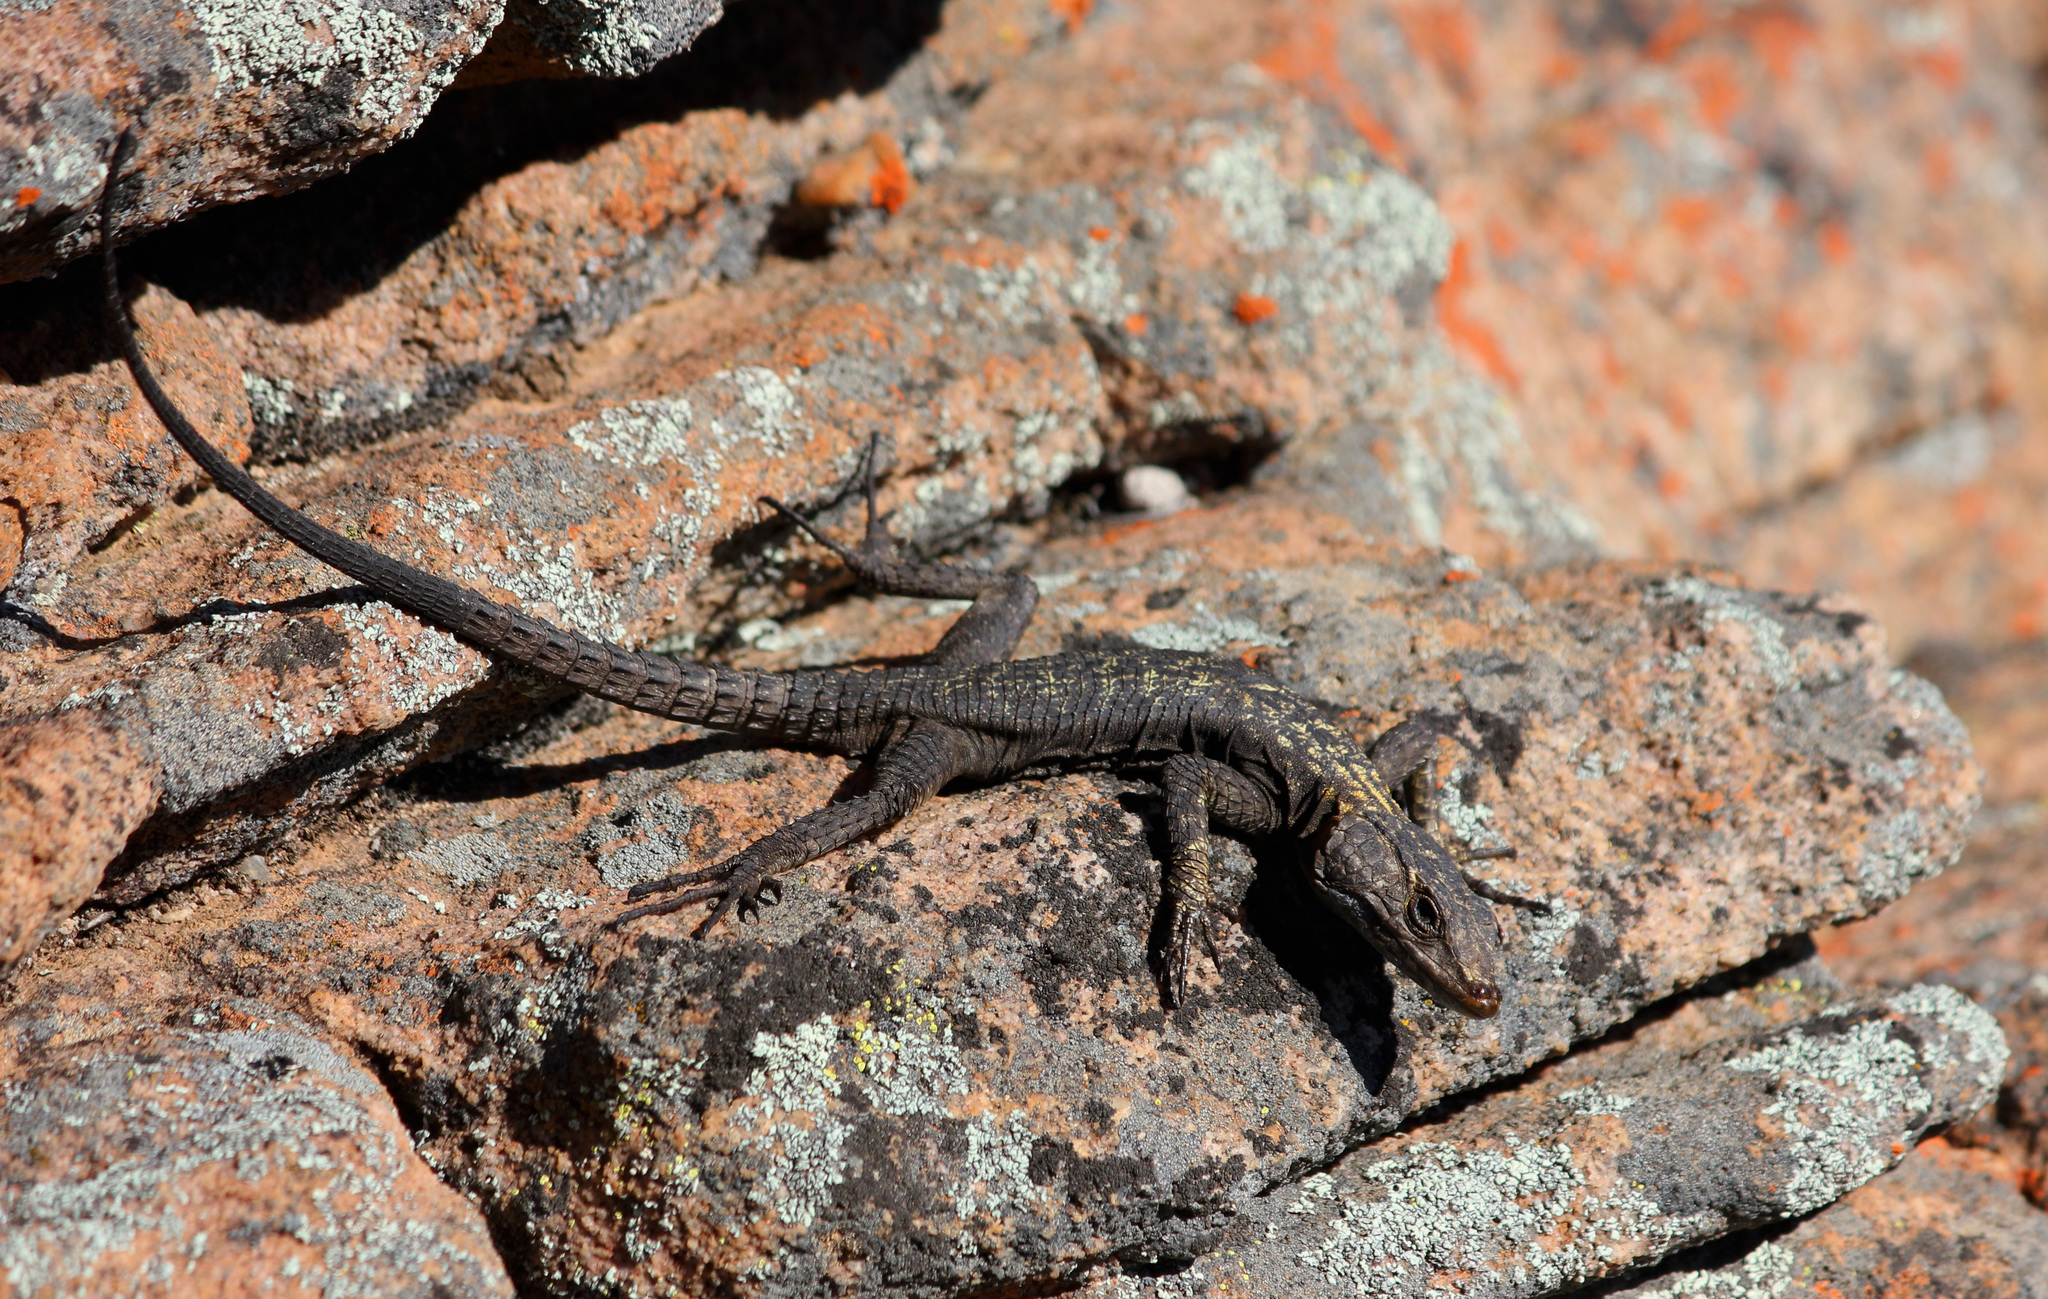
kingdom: Animalia
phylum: Chordata
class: Squamata
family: Cordylidae
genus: Hemicordylus
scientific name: Hemicordylus capensis
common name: Graceful crag lizard
